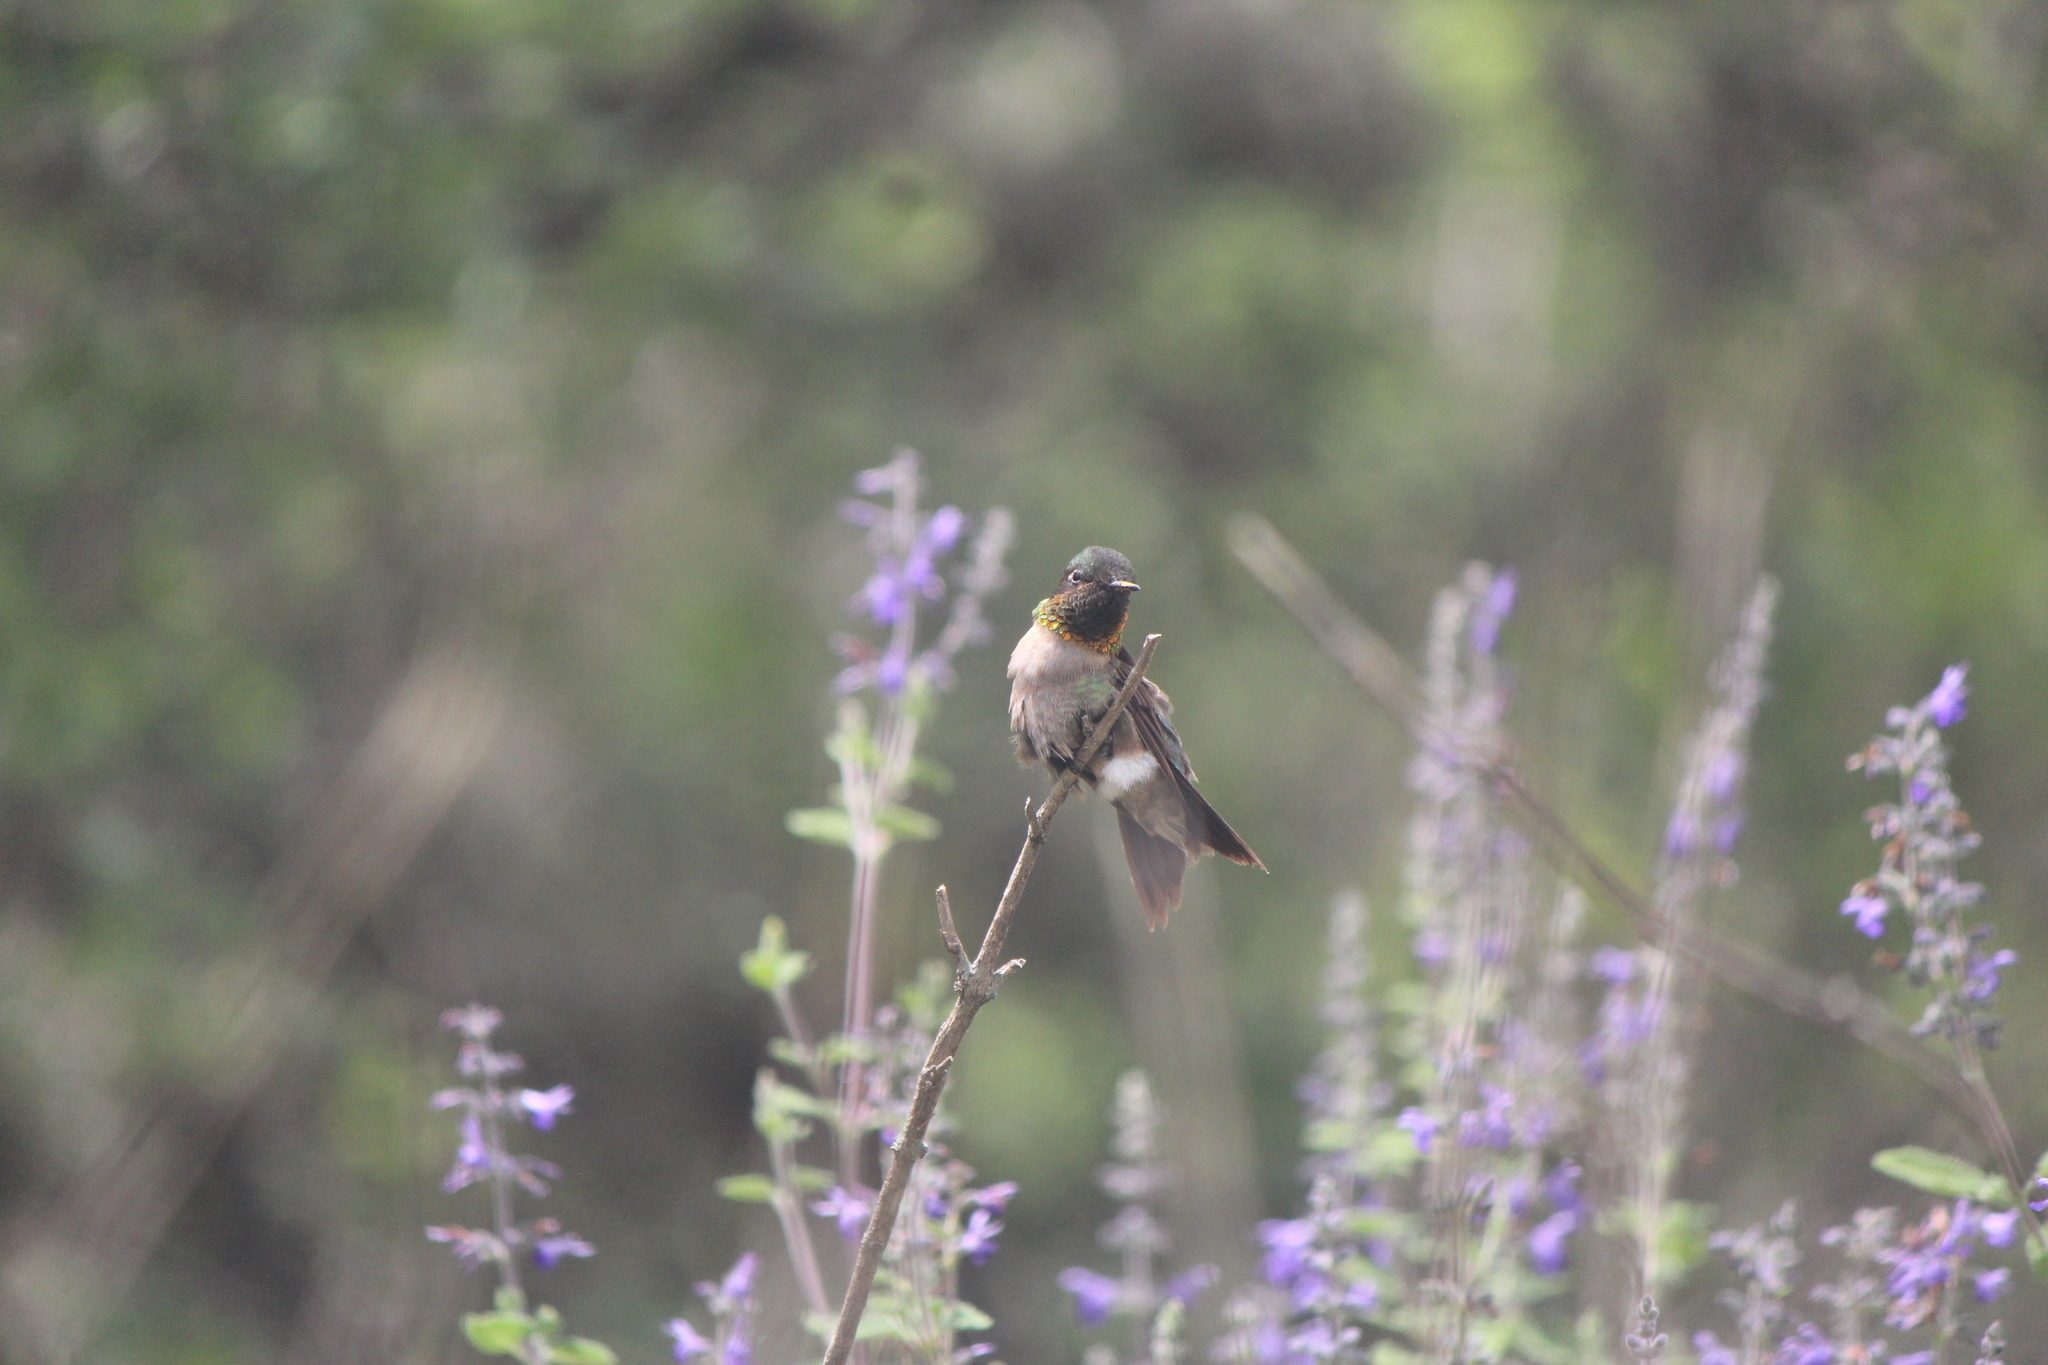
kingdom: Animalia
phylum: Chordata
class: Aves
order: Apodiformes
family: Trochilidae
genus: Archilochus
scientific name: Archilochus colubris
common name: Ruby-throated hummingbird
